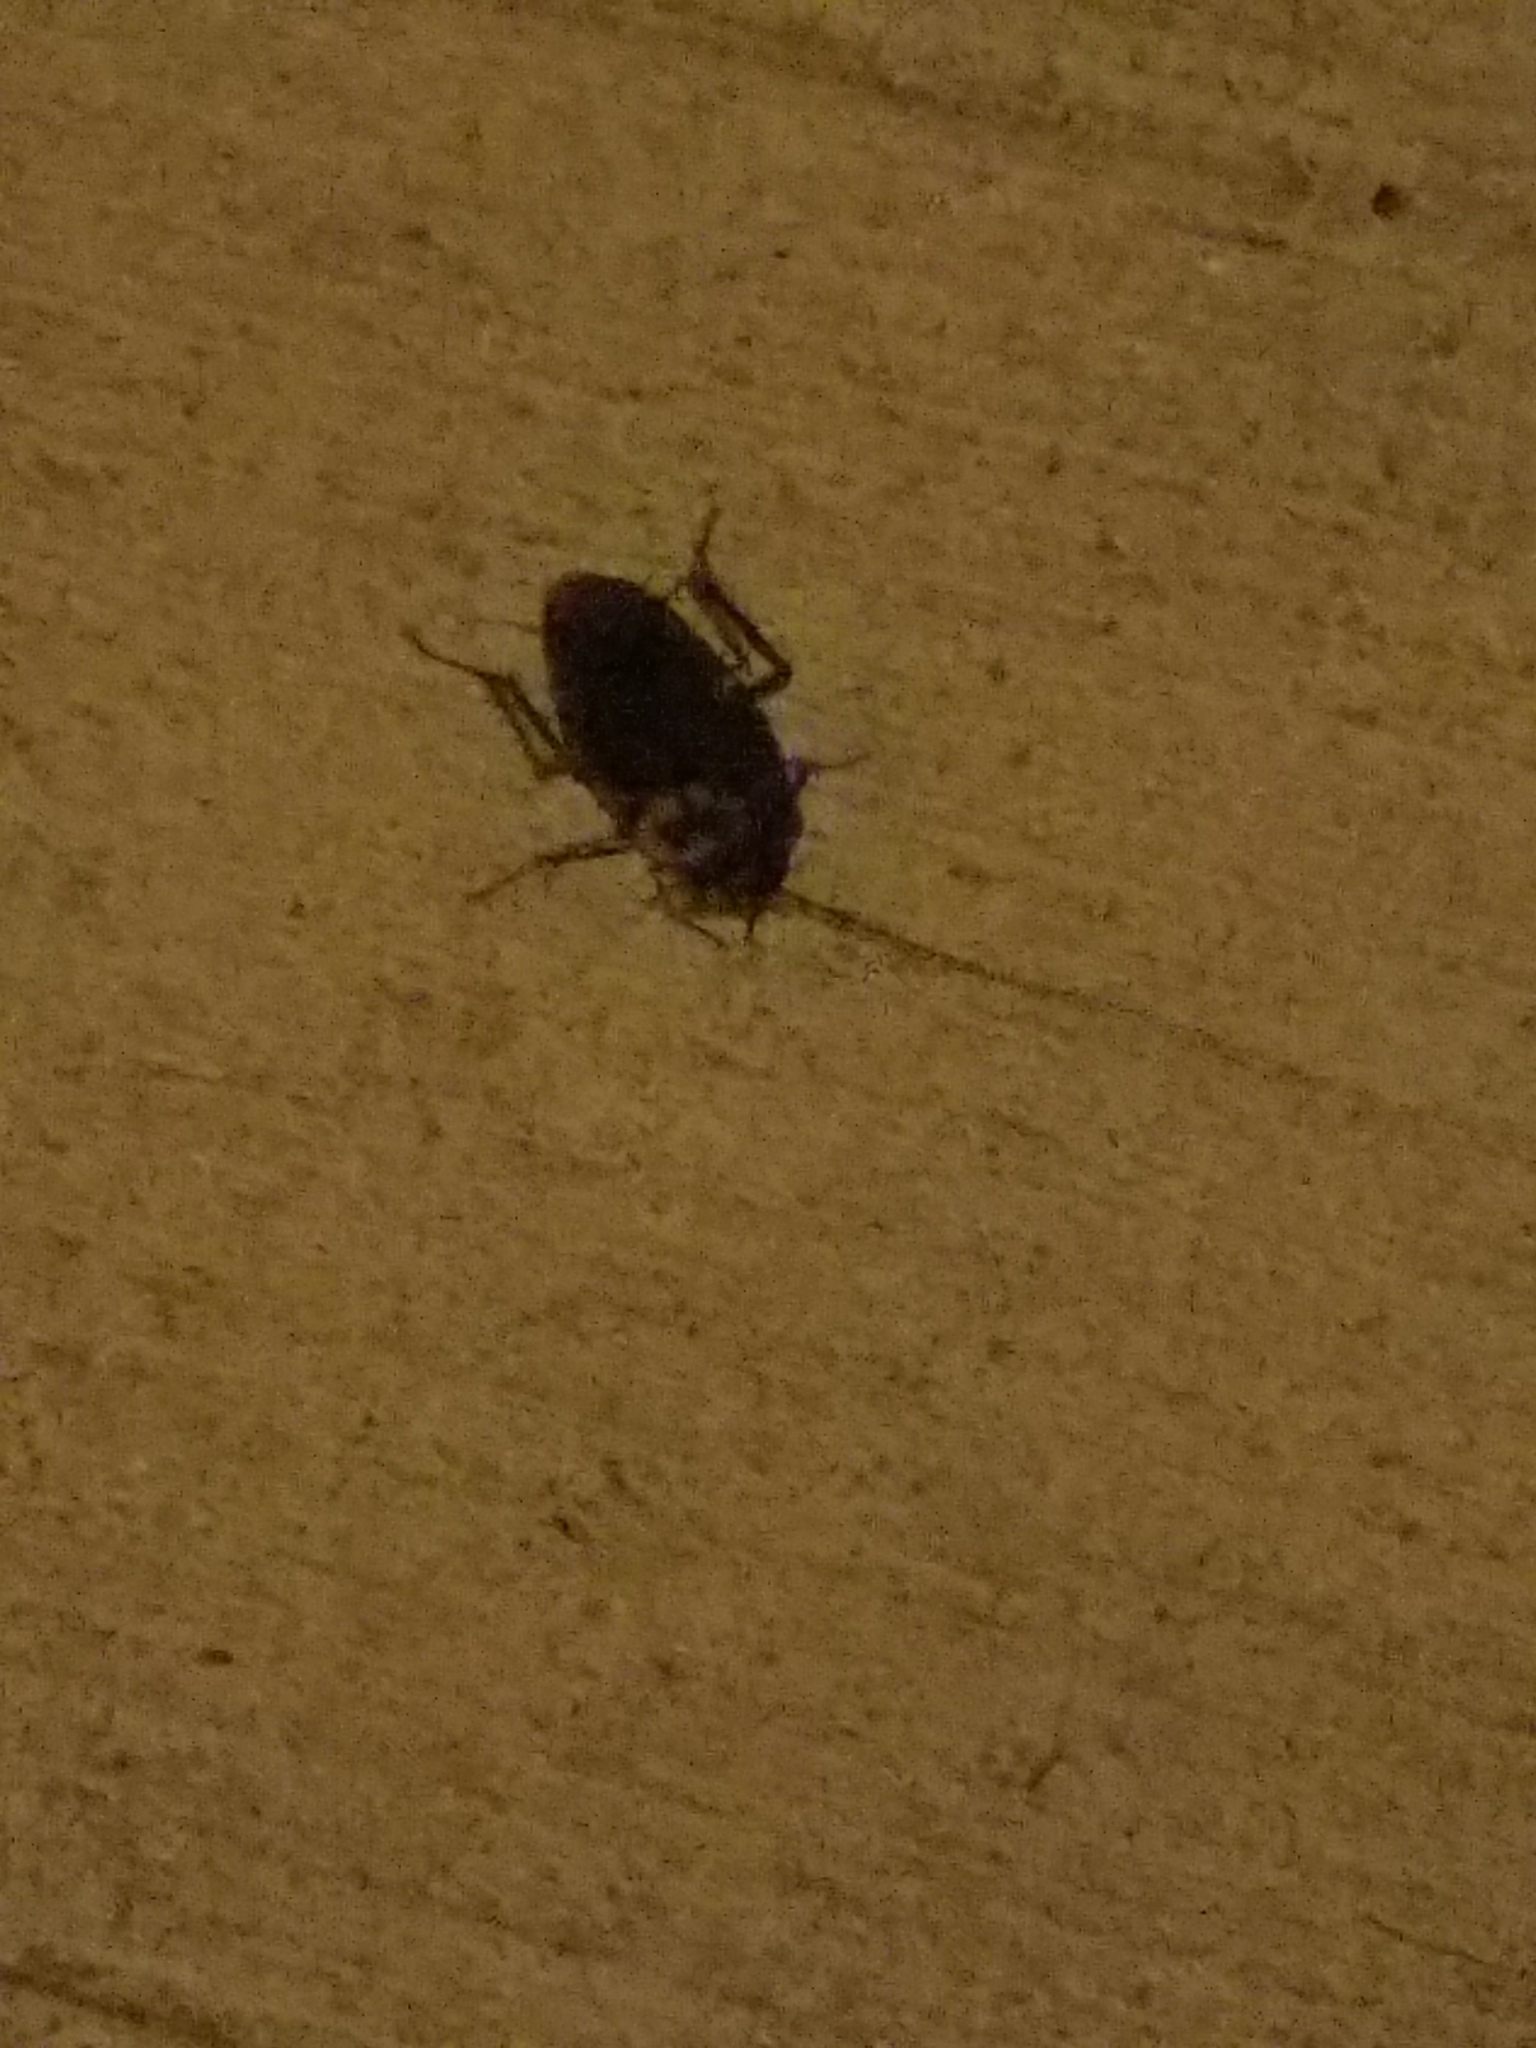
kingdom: Animalia
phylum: Arthropoda
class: Insecta
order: Blattodea
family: Blattidae
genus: Periplaneta
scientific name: Periplaneta americana
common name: American cockroach
